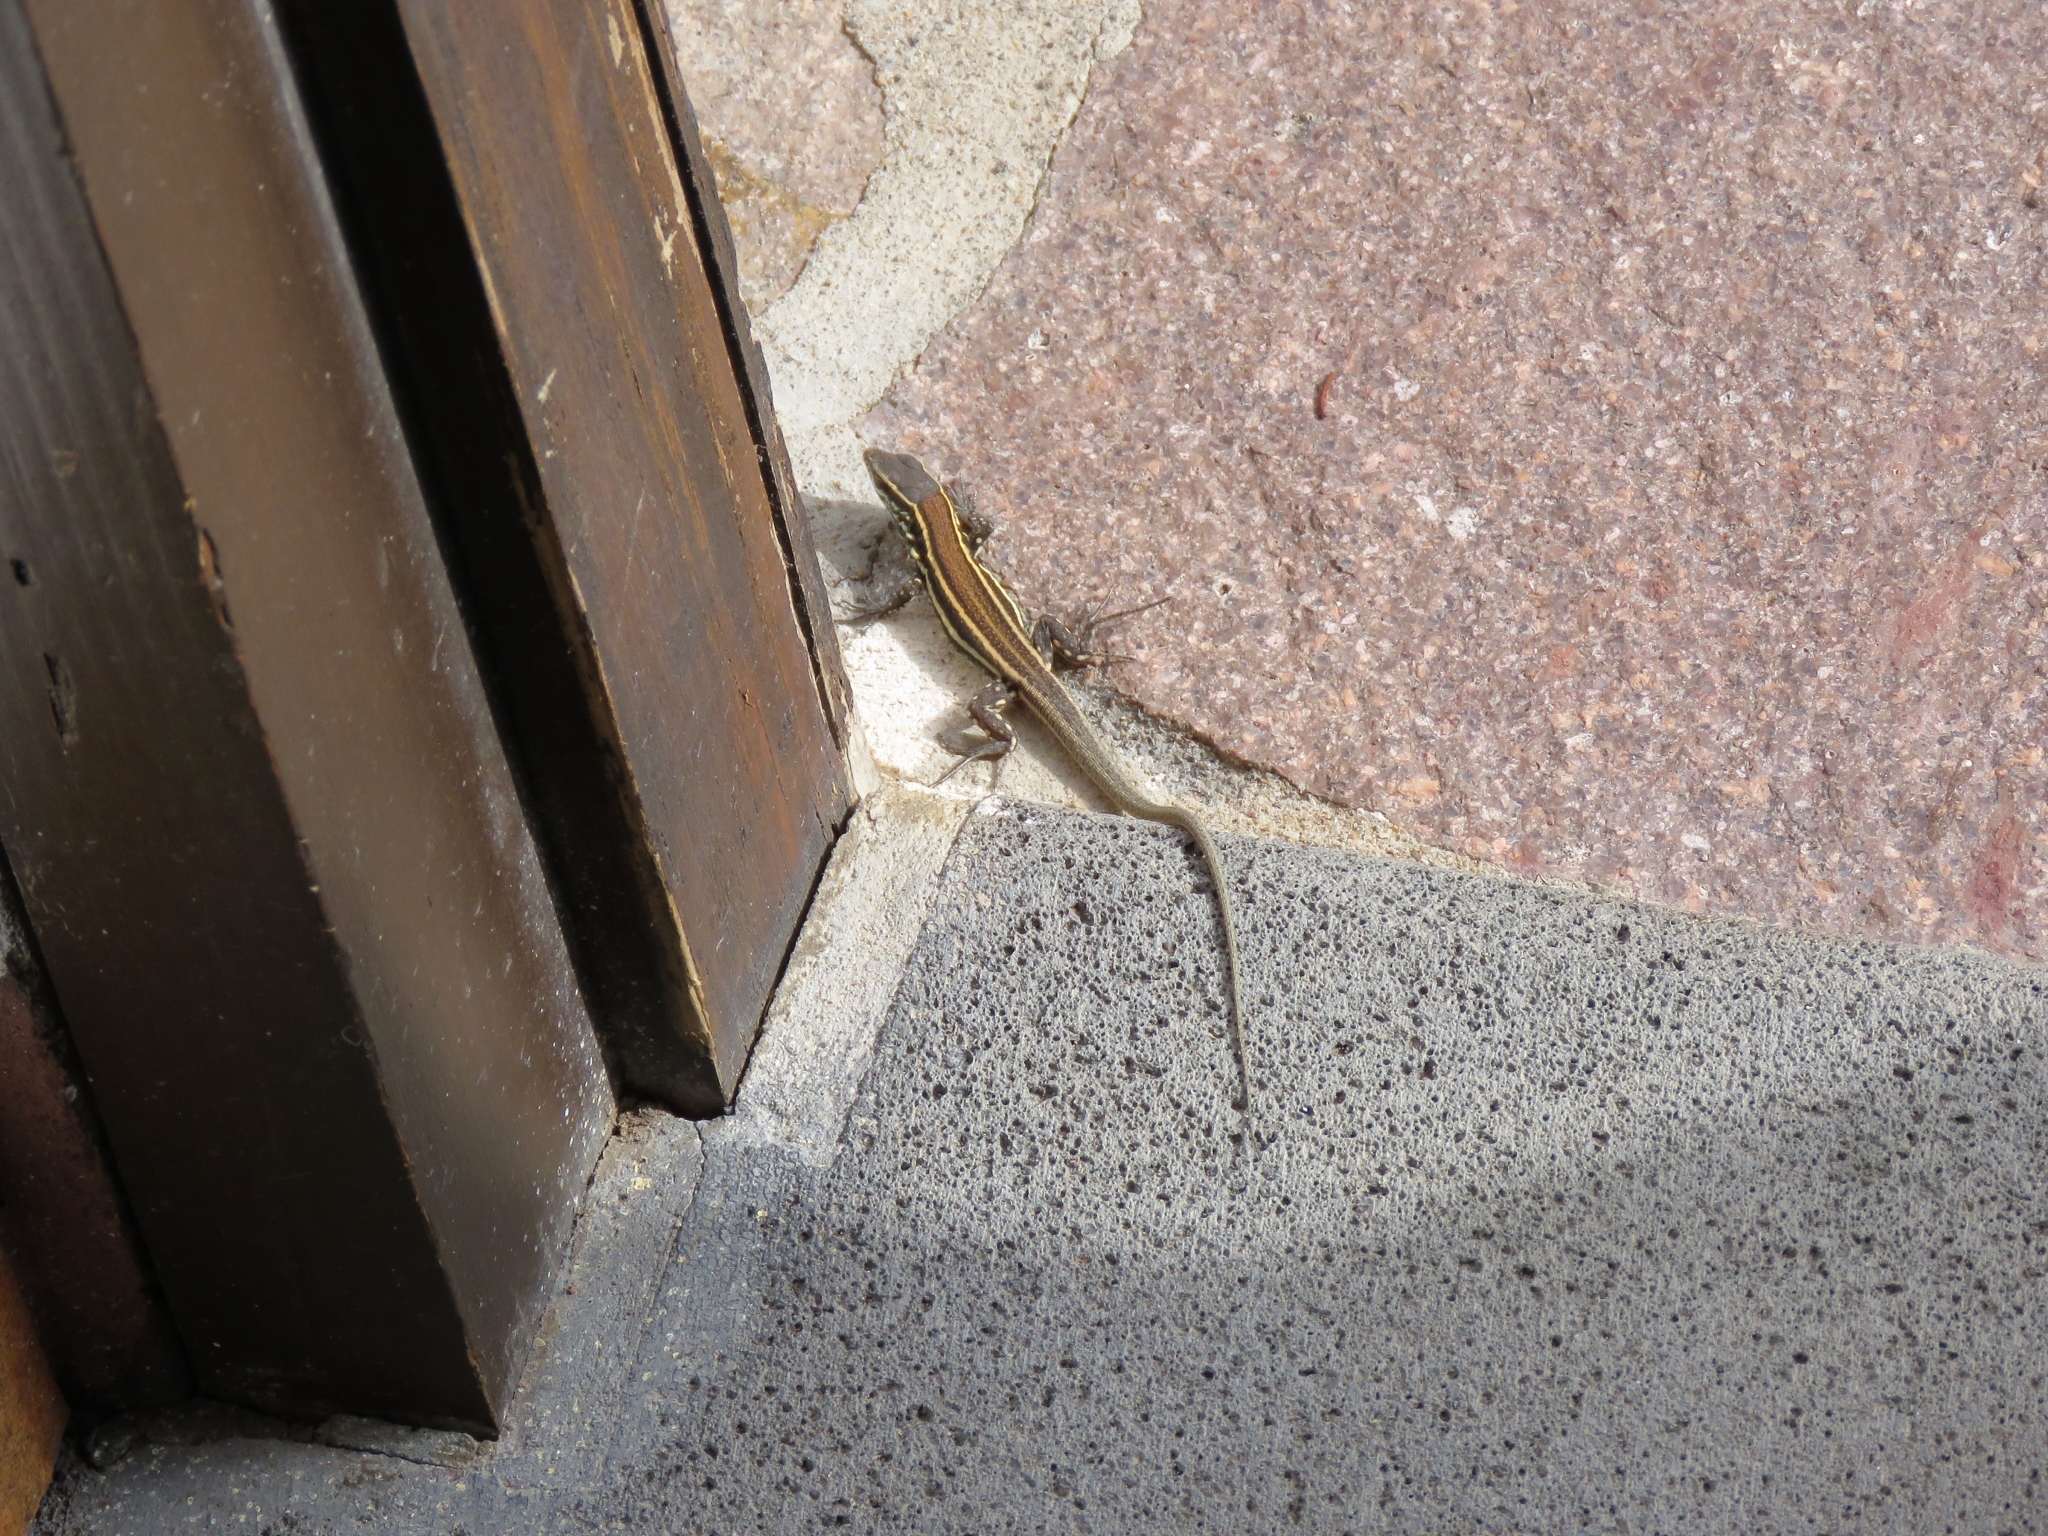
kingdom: Animalia
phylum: Chordata
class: Squamata
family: Lacertidae
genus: Gallotia
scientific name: Gallotia caesaris
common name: Boettger's lizard
